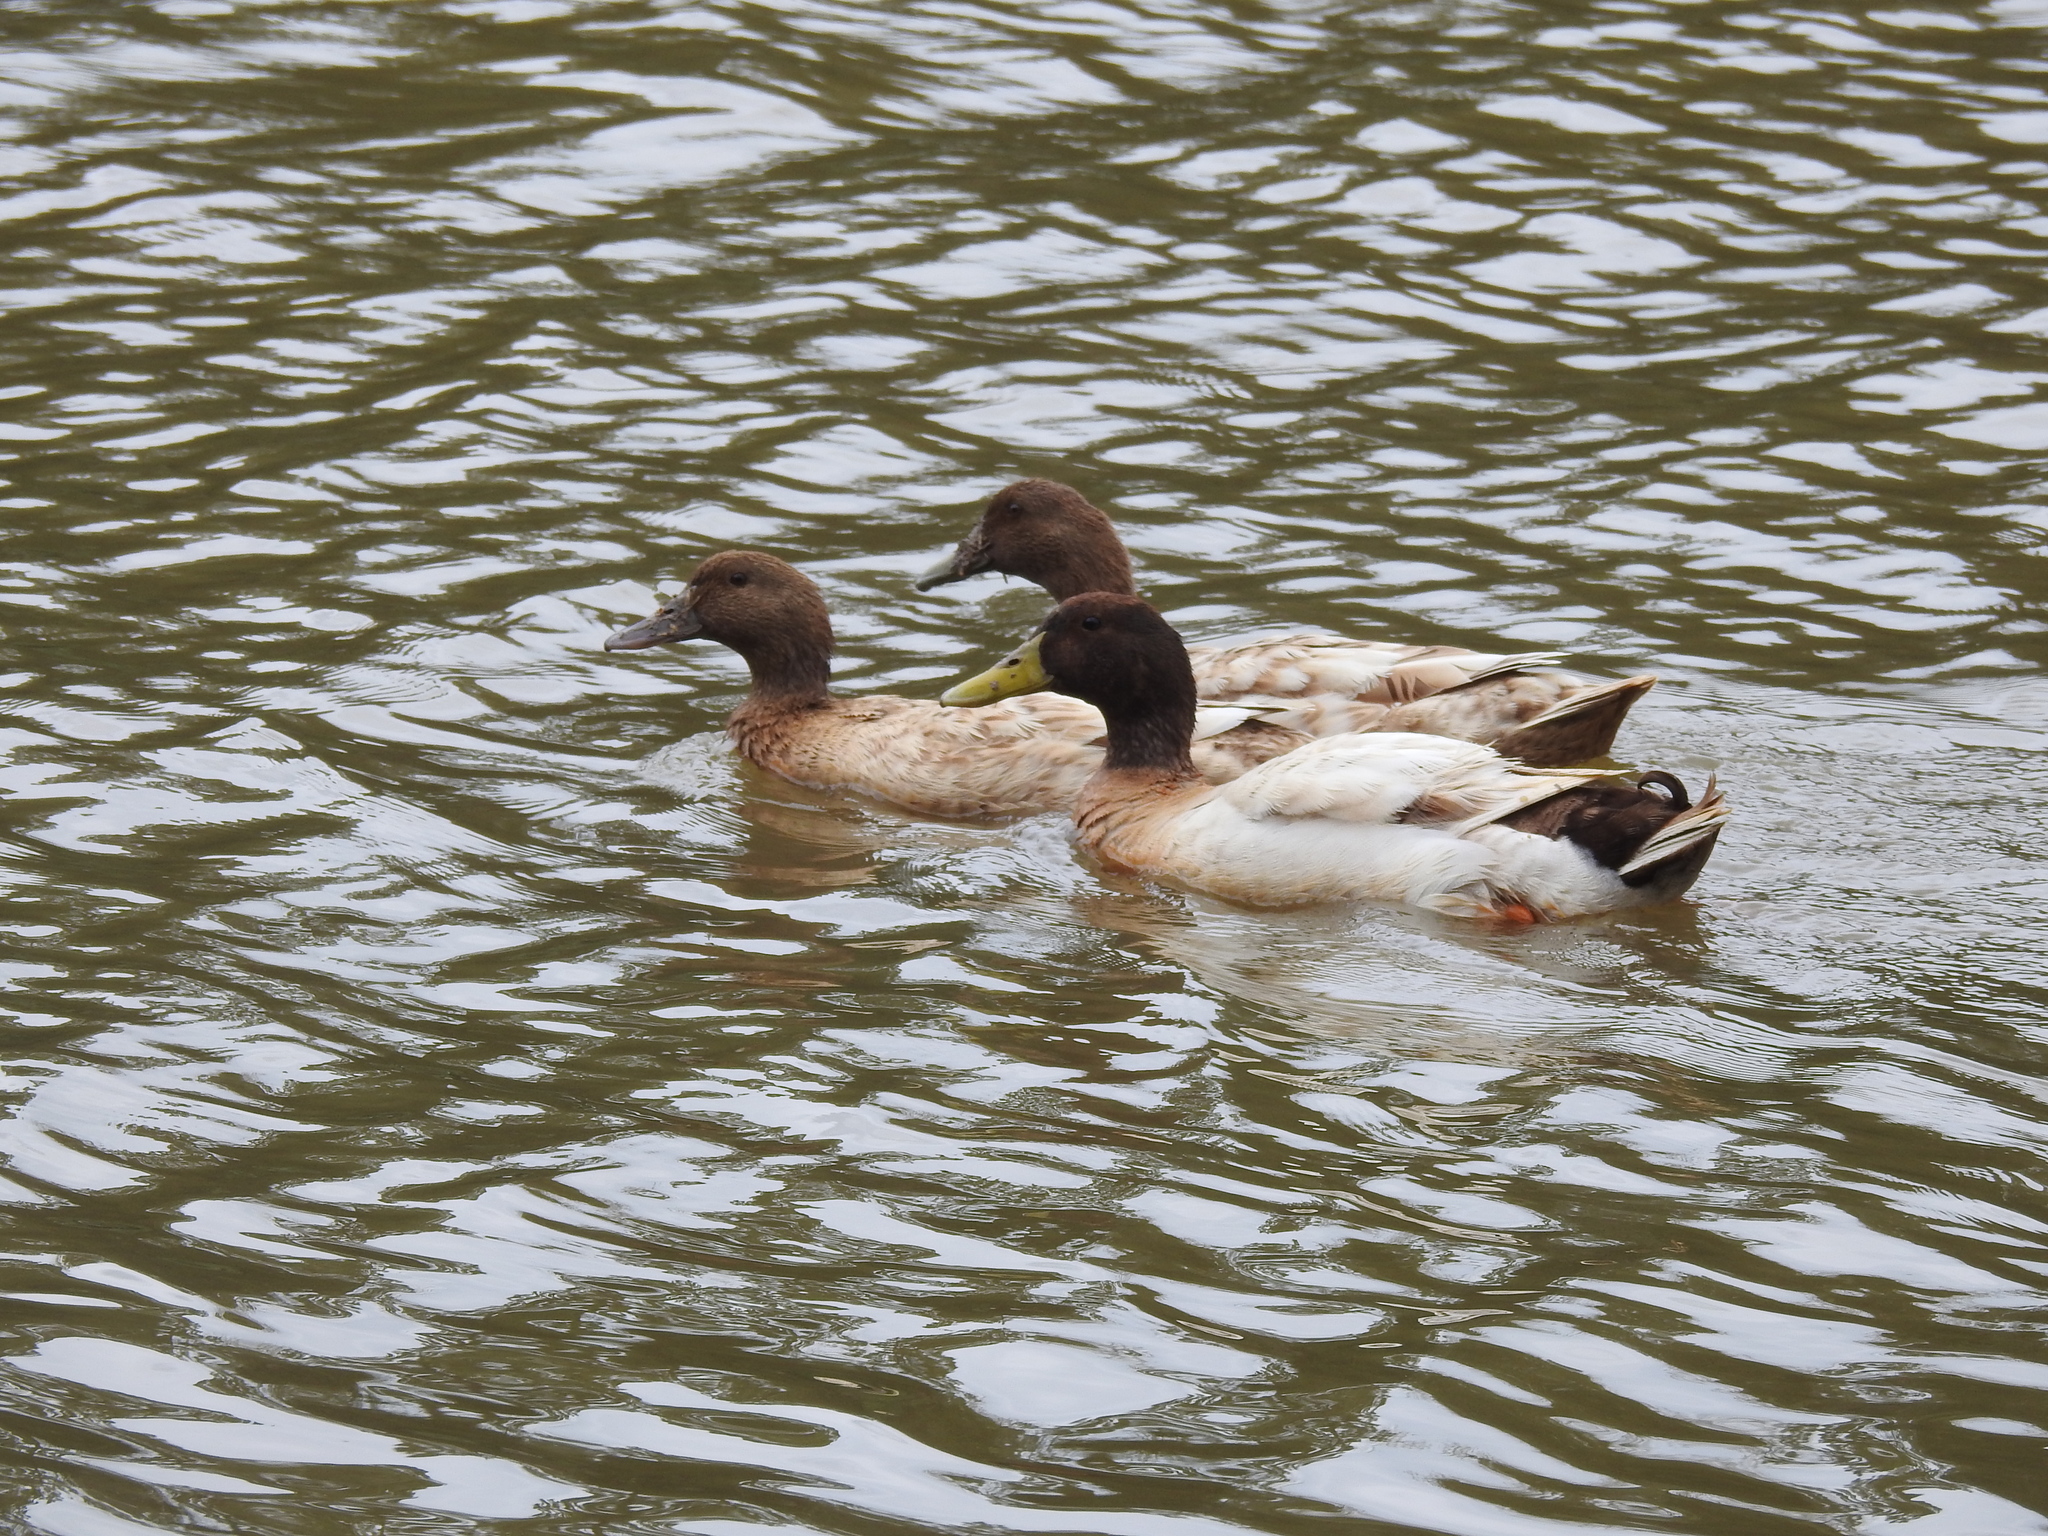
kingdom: Animalia
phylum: Chordata
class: Aves
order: Anseriformes
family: Anatidae
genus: Anas
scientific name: Anas platyrhynchos
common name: Mallard
